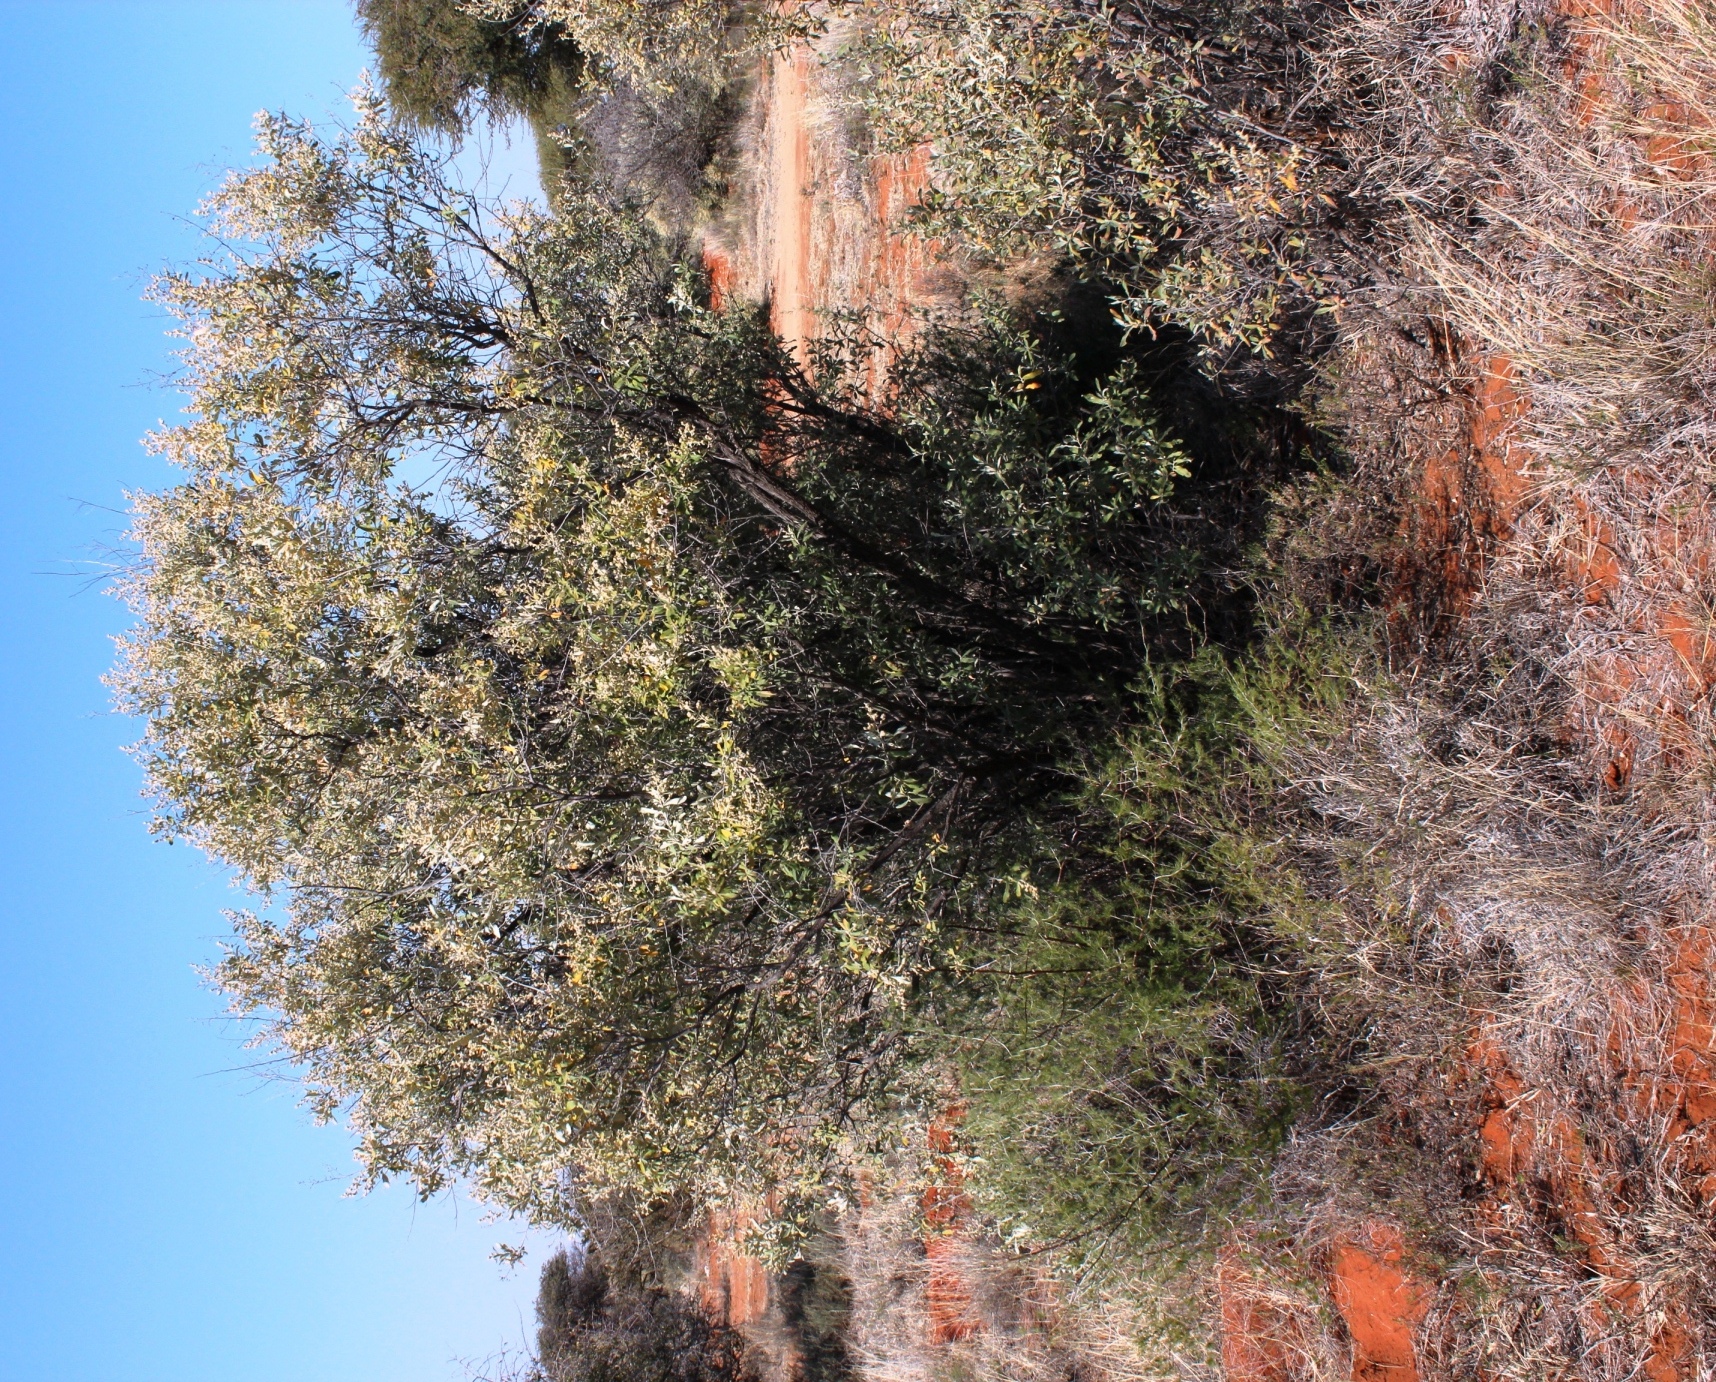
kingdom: Plantae
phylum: Tracheophyta
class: Magnoliopsida
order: Asterales
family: Asteraceae
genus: Tarchonanthus
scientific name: Tarchonanthus camphoratus
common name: Camphorwood
